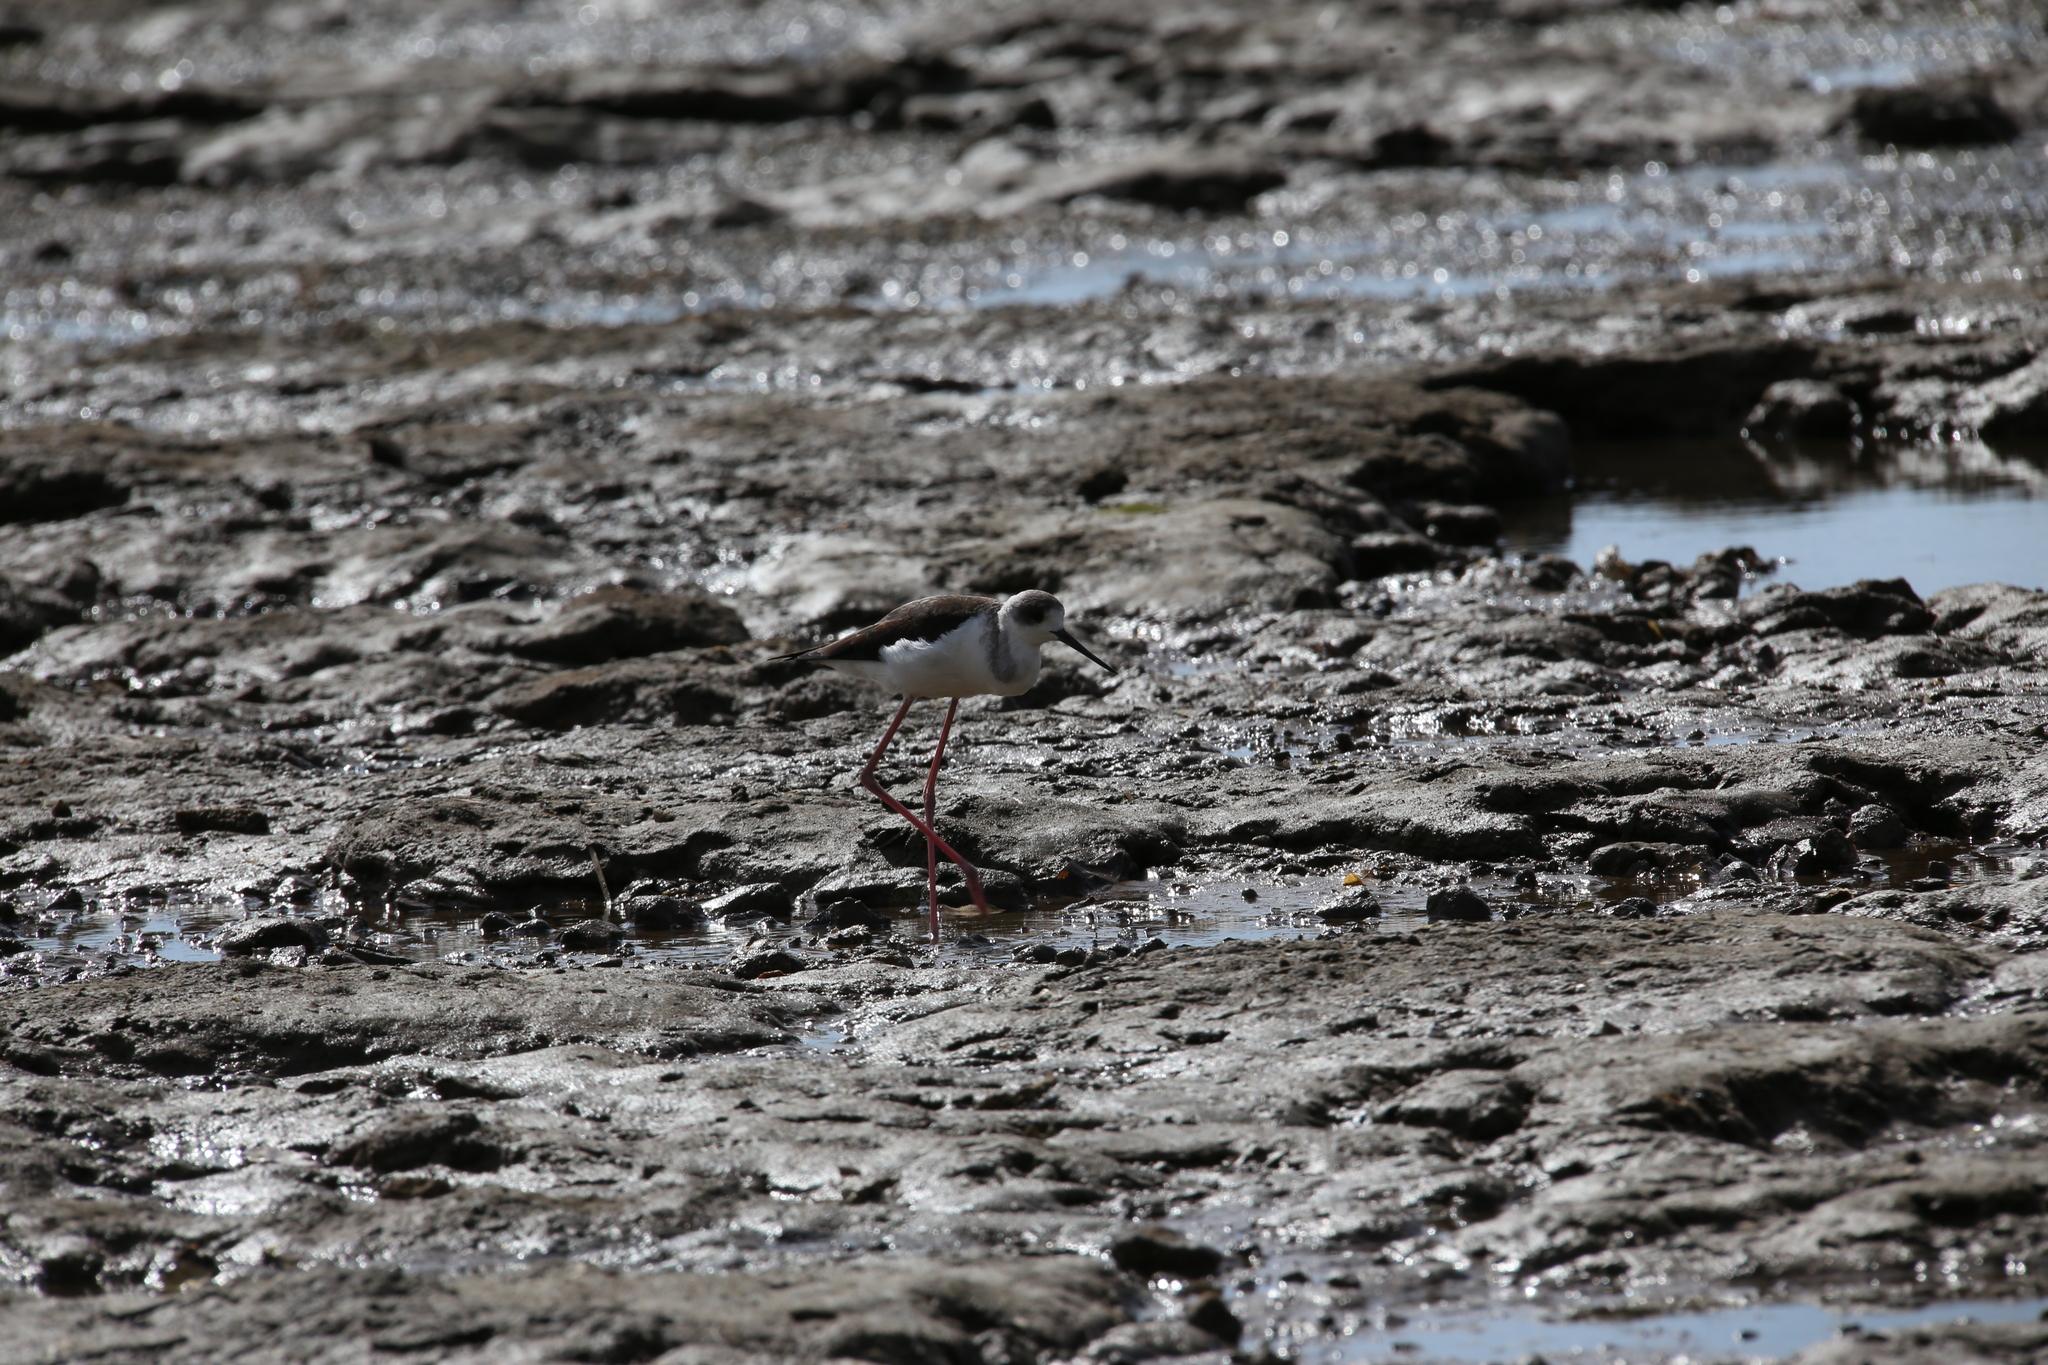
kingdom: Animalia
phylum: Chordata
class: Aves
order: Charadriiformes
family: Recurvirostridae
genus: Himantopus
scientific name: Himantopus leucocephalus
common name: White-headed stilt
